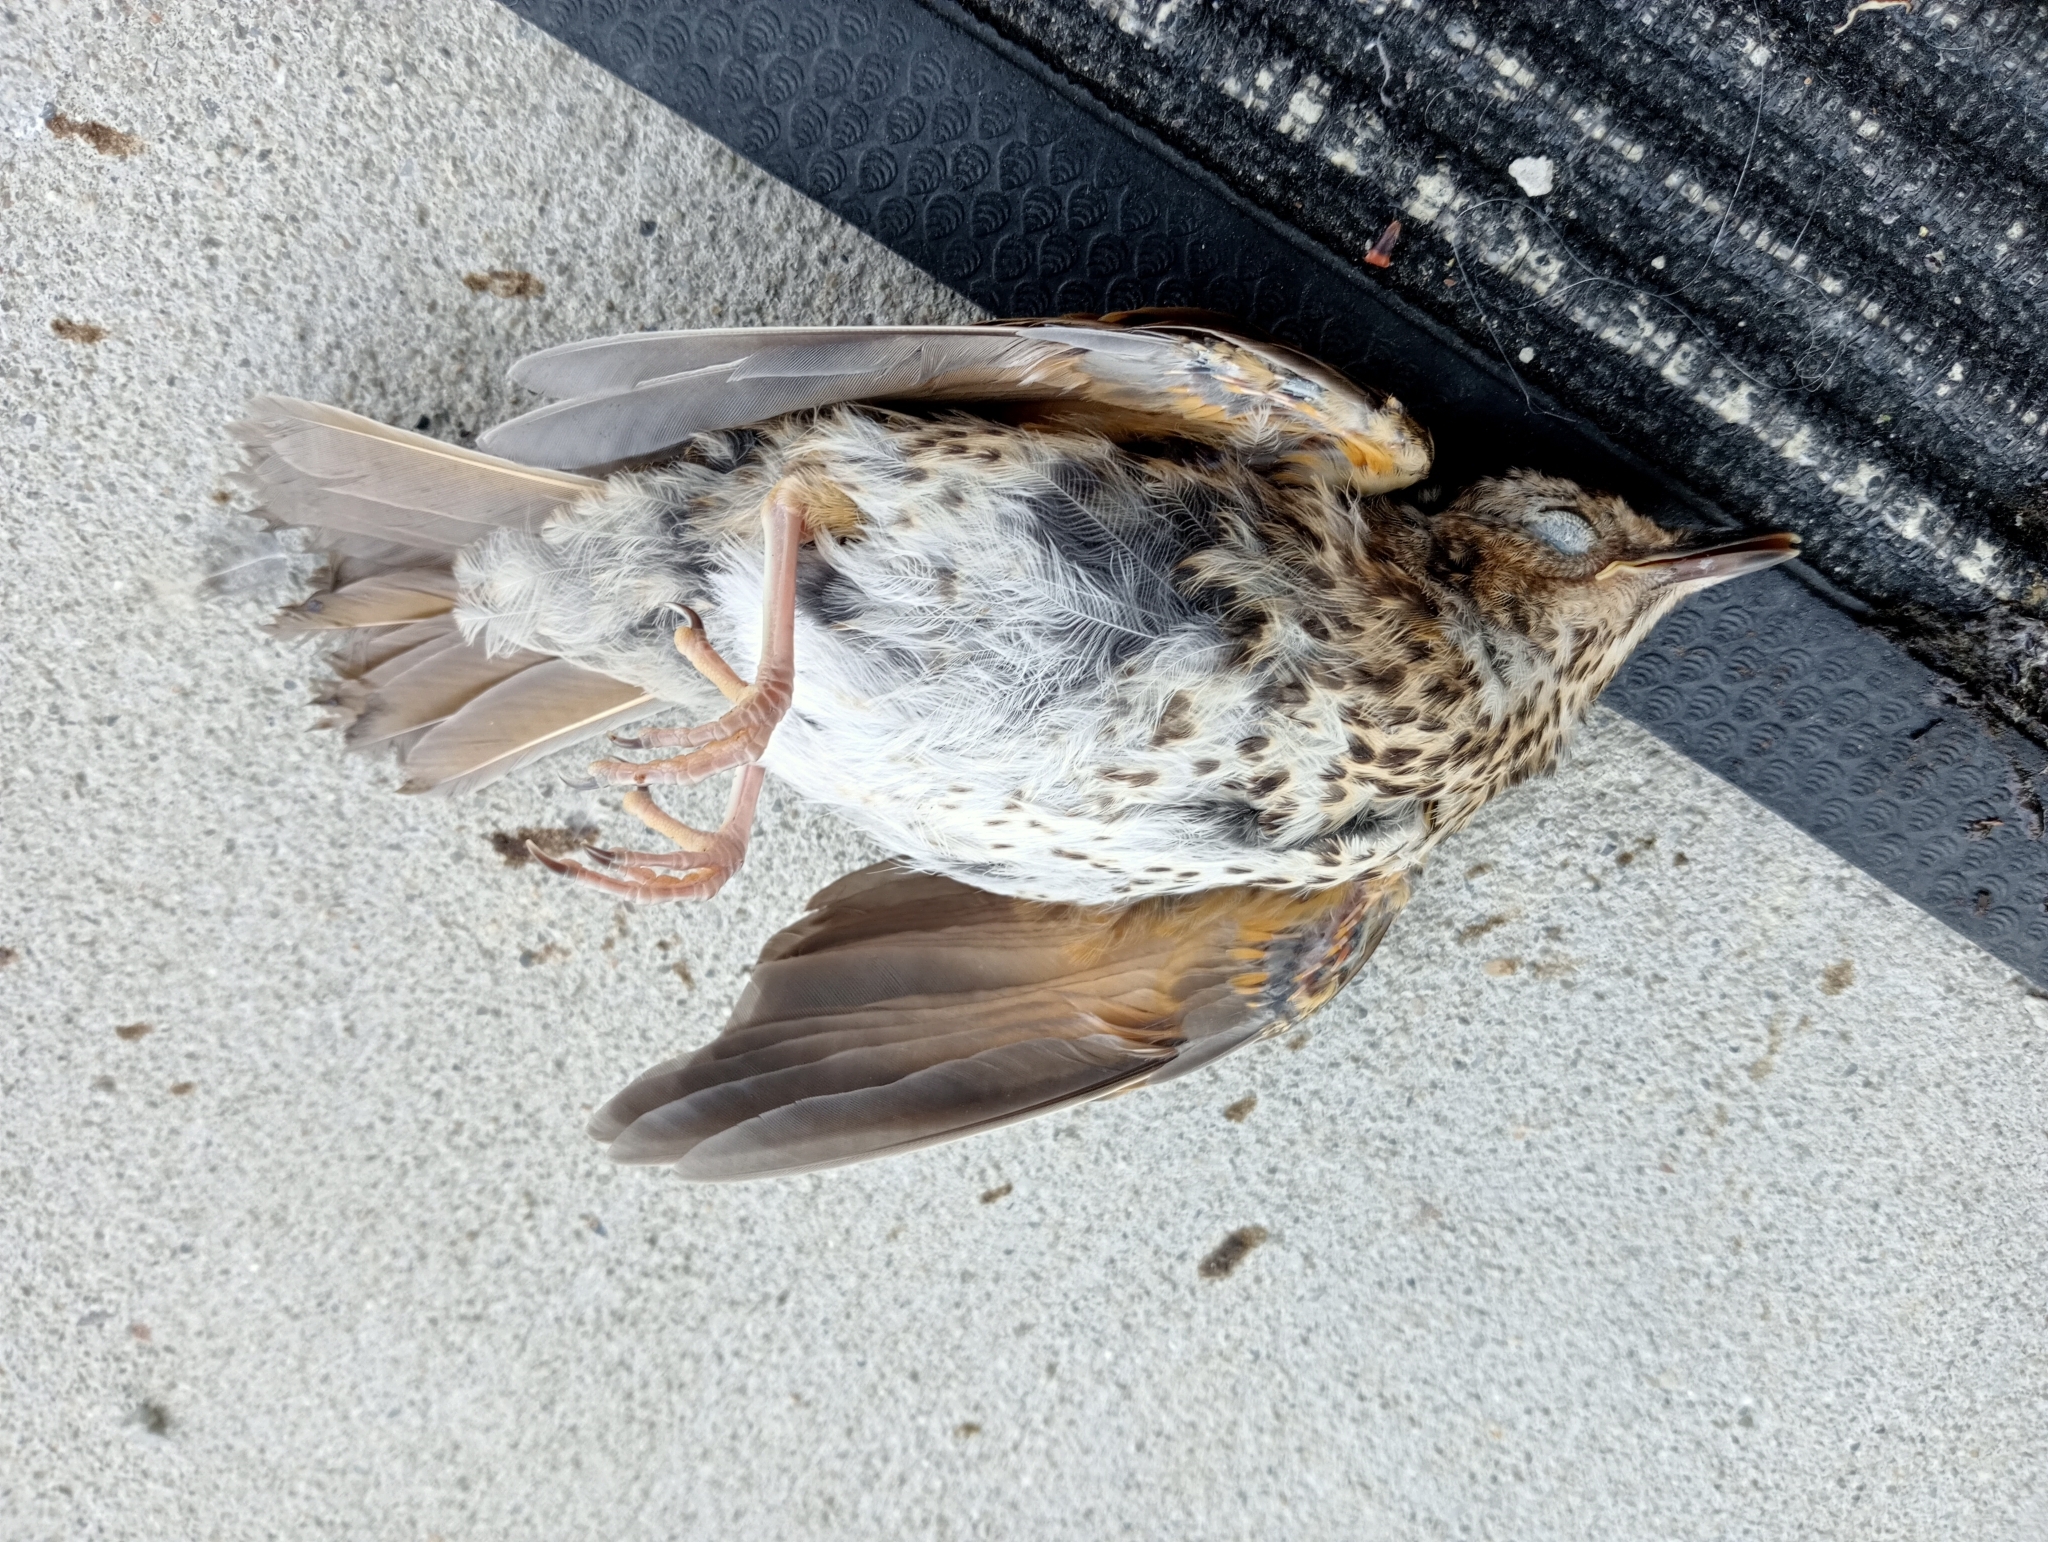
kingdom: Animalia
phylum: Chordata
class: Aves
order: Passeriformes
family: Turdidae
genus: Turdus
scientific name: Turdus philomelos
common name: Song thrush
